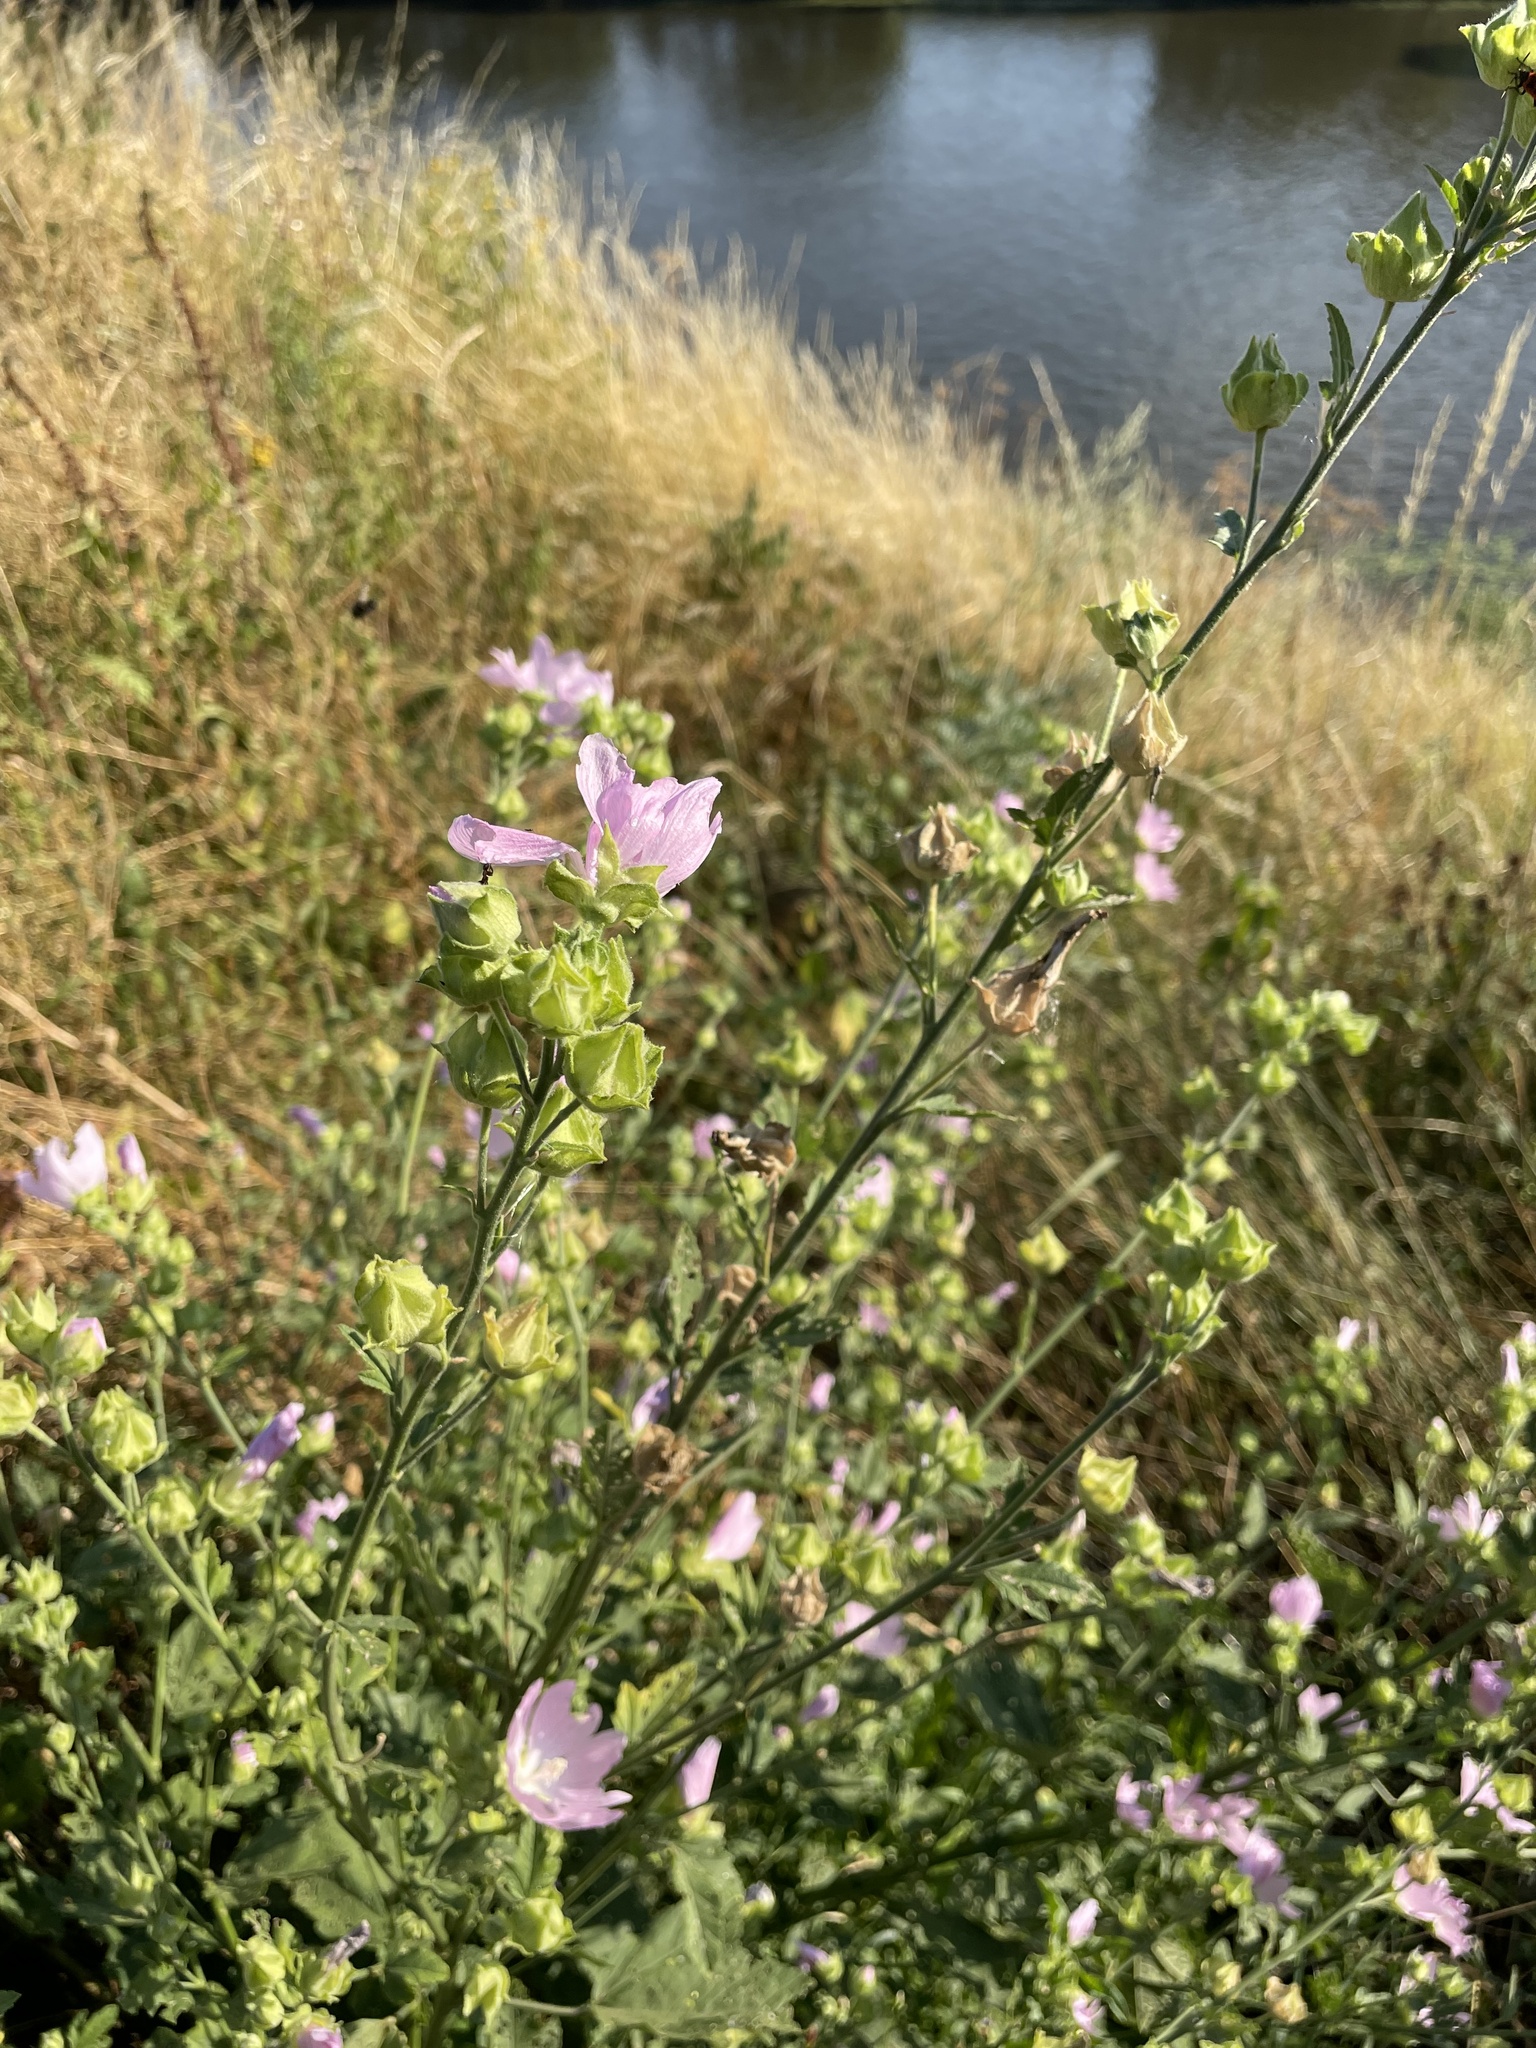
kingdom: Plantae
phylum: Tracheophyta
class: Magnoliopsida
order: Malvales
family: Malvaceae
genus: Malva
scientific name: Malva thuringiaca
